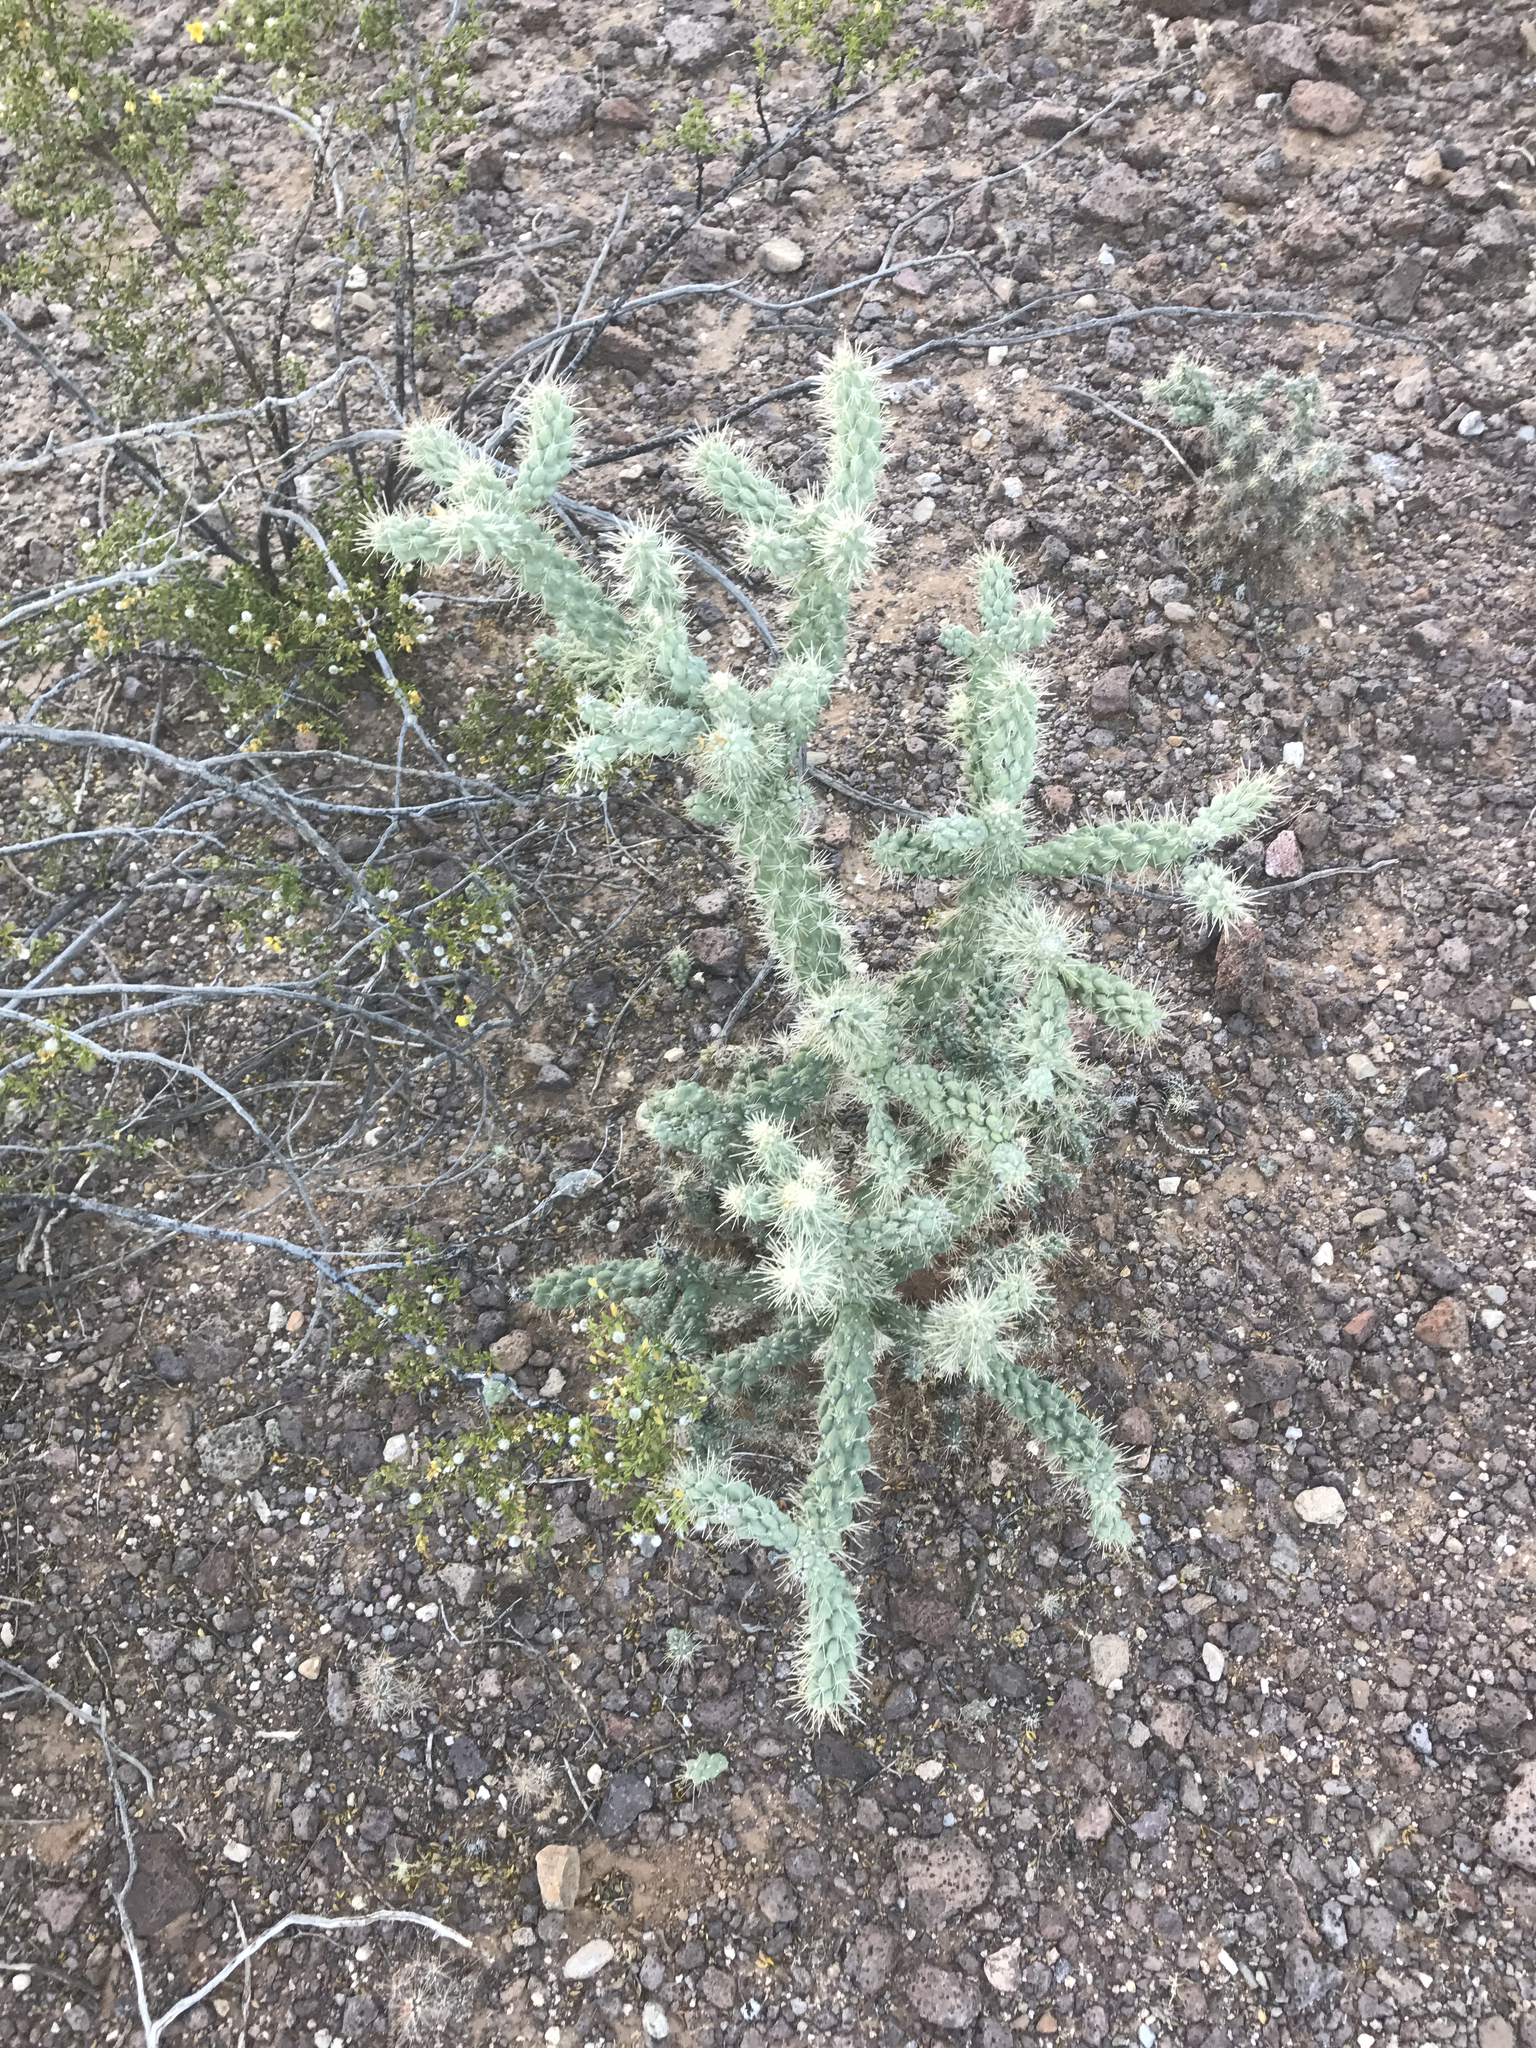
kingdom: Plantae
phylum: Tracheophyta
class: Magnoliopsida
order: Caryophyllales
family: Cactaceae
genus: Cylindropuntia
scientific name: Cylindropuntia fulgida
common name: Jumping cholla
